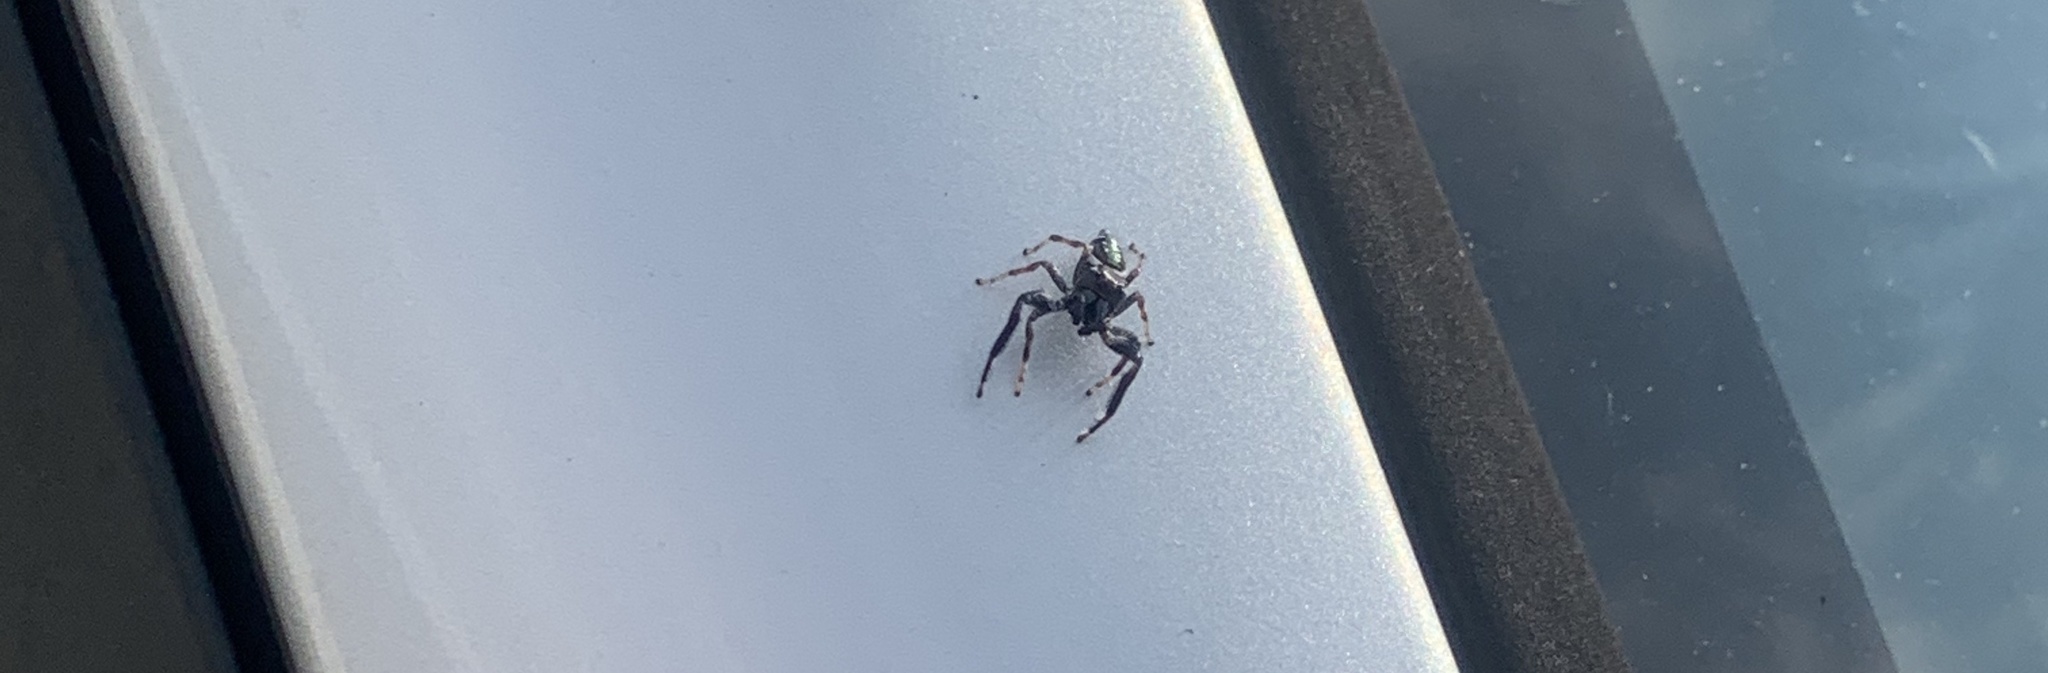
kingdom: Animalia
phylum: Arthropoda
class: Arachnida
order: Araneae
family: Salticidae
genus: Paraphidippus
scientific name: Paraphidippus aurantius
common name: Jumping spiders
